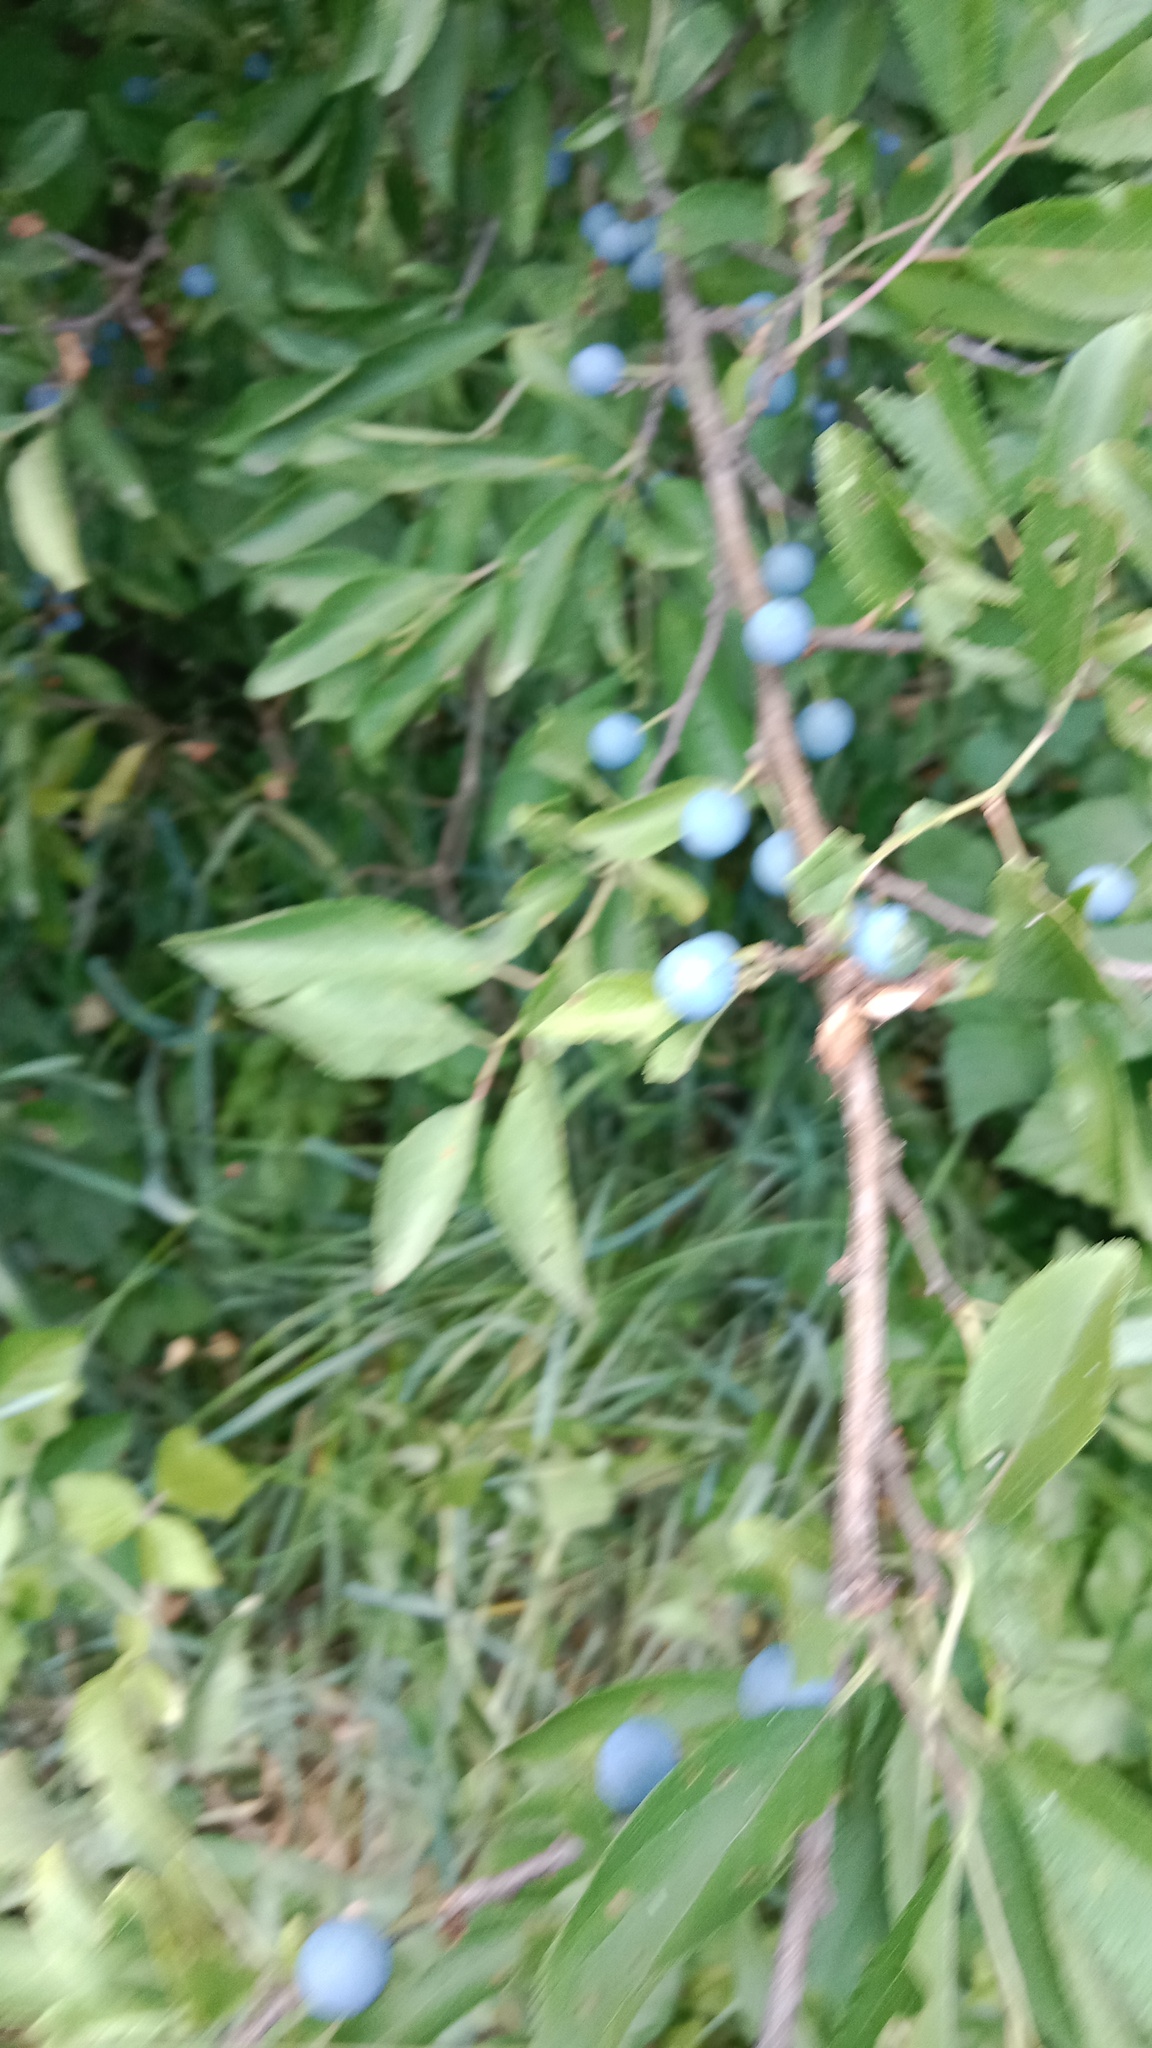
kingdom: Plantae
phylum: Tracheophyta
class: Magnoliopsida
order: Rosales
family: Rosaceae
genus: Prunus
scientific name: Prunus spinosa
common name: Blackthorn
